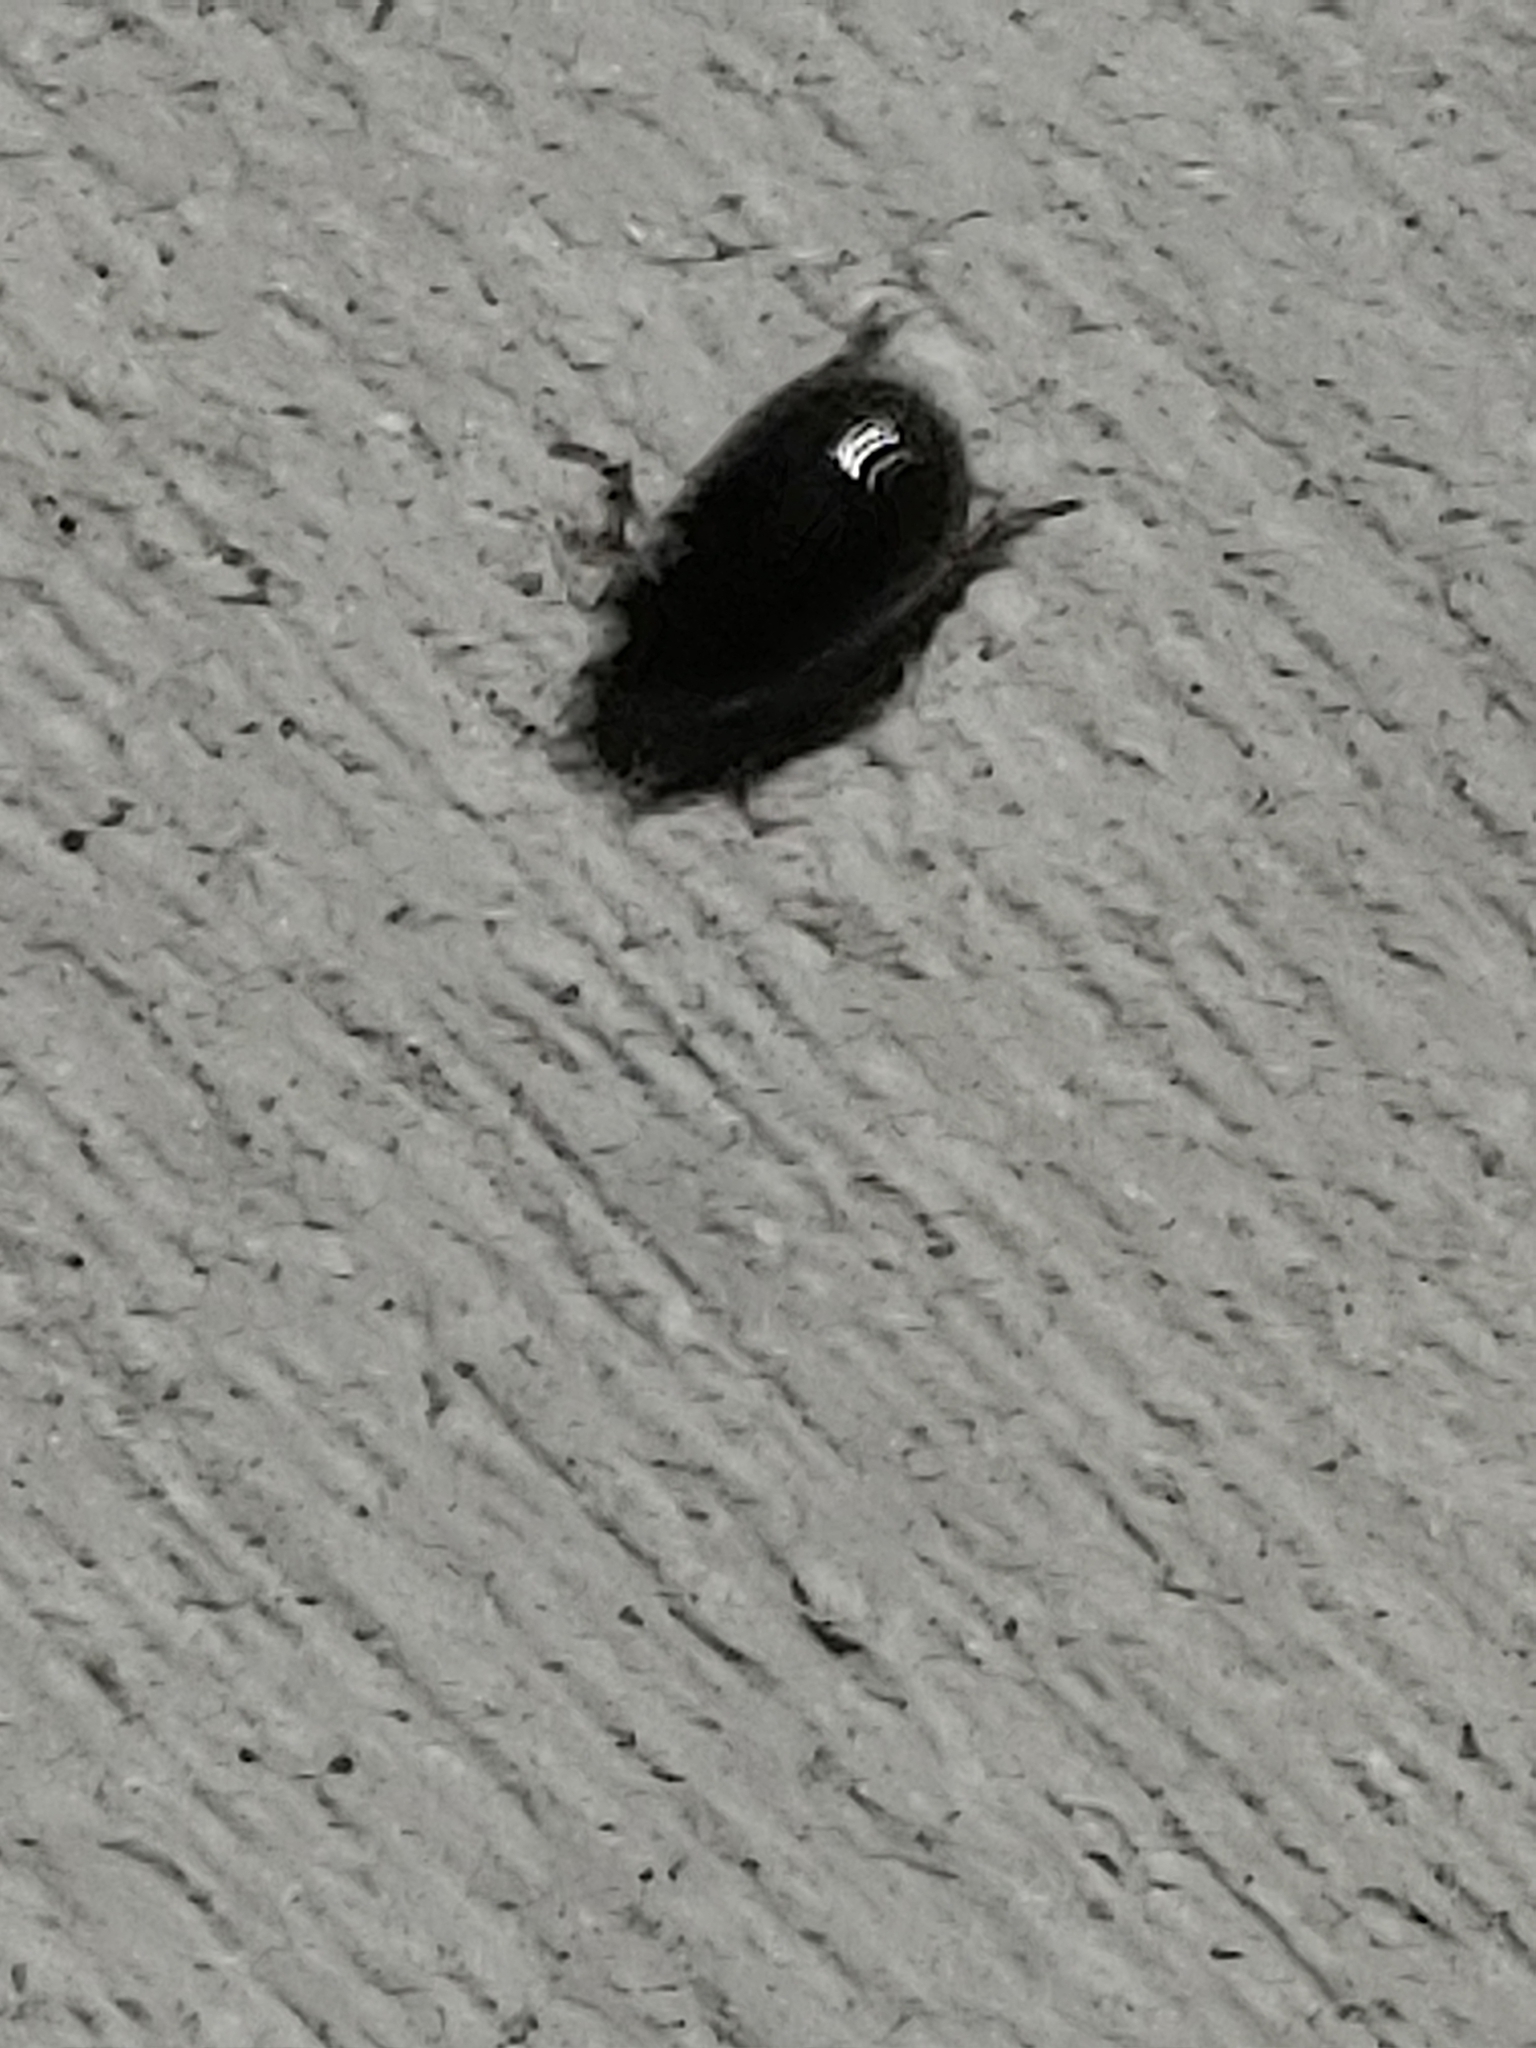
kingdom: Animalia
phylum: Arthropoda
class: Insecta
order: Coleoptera
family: Hybosoridae
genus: Hybosorus
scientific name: Hybosorus illigeri
